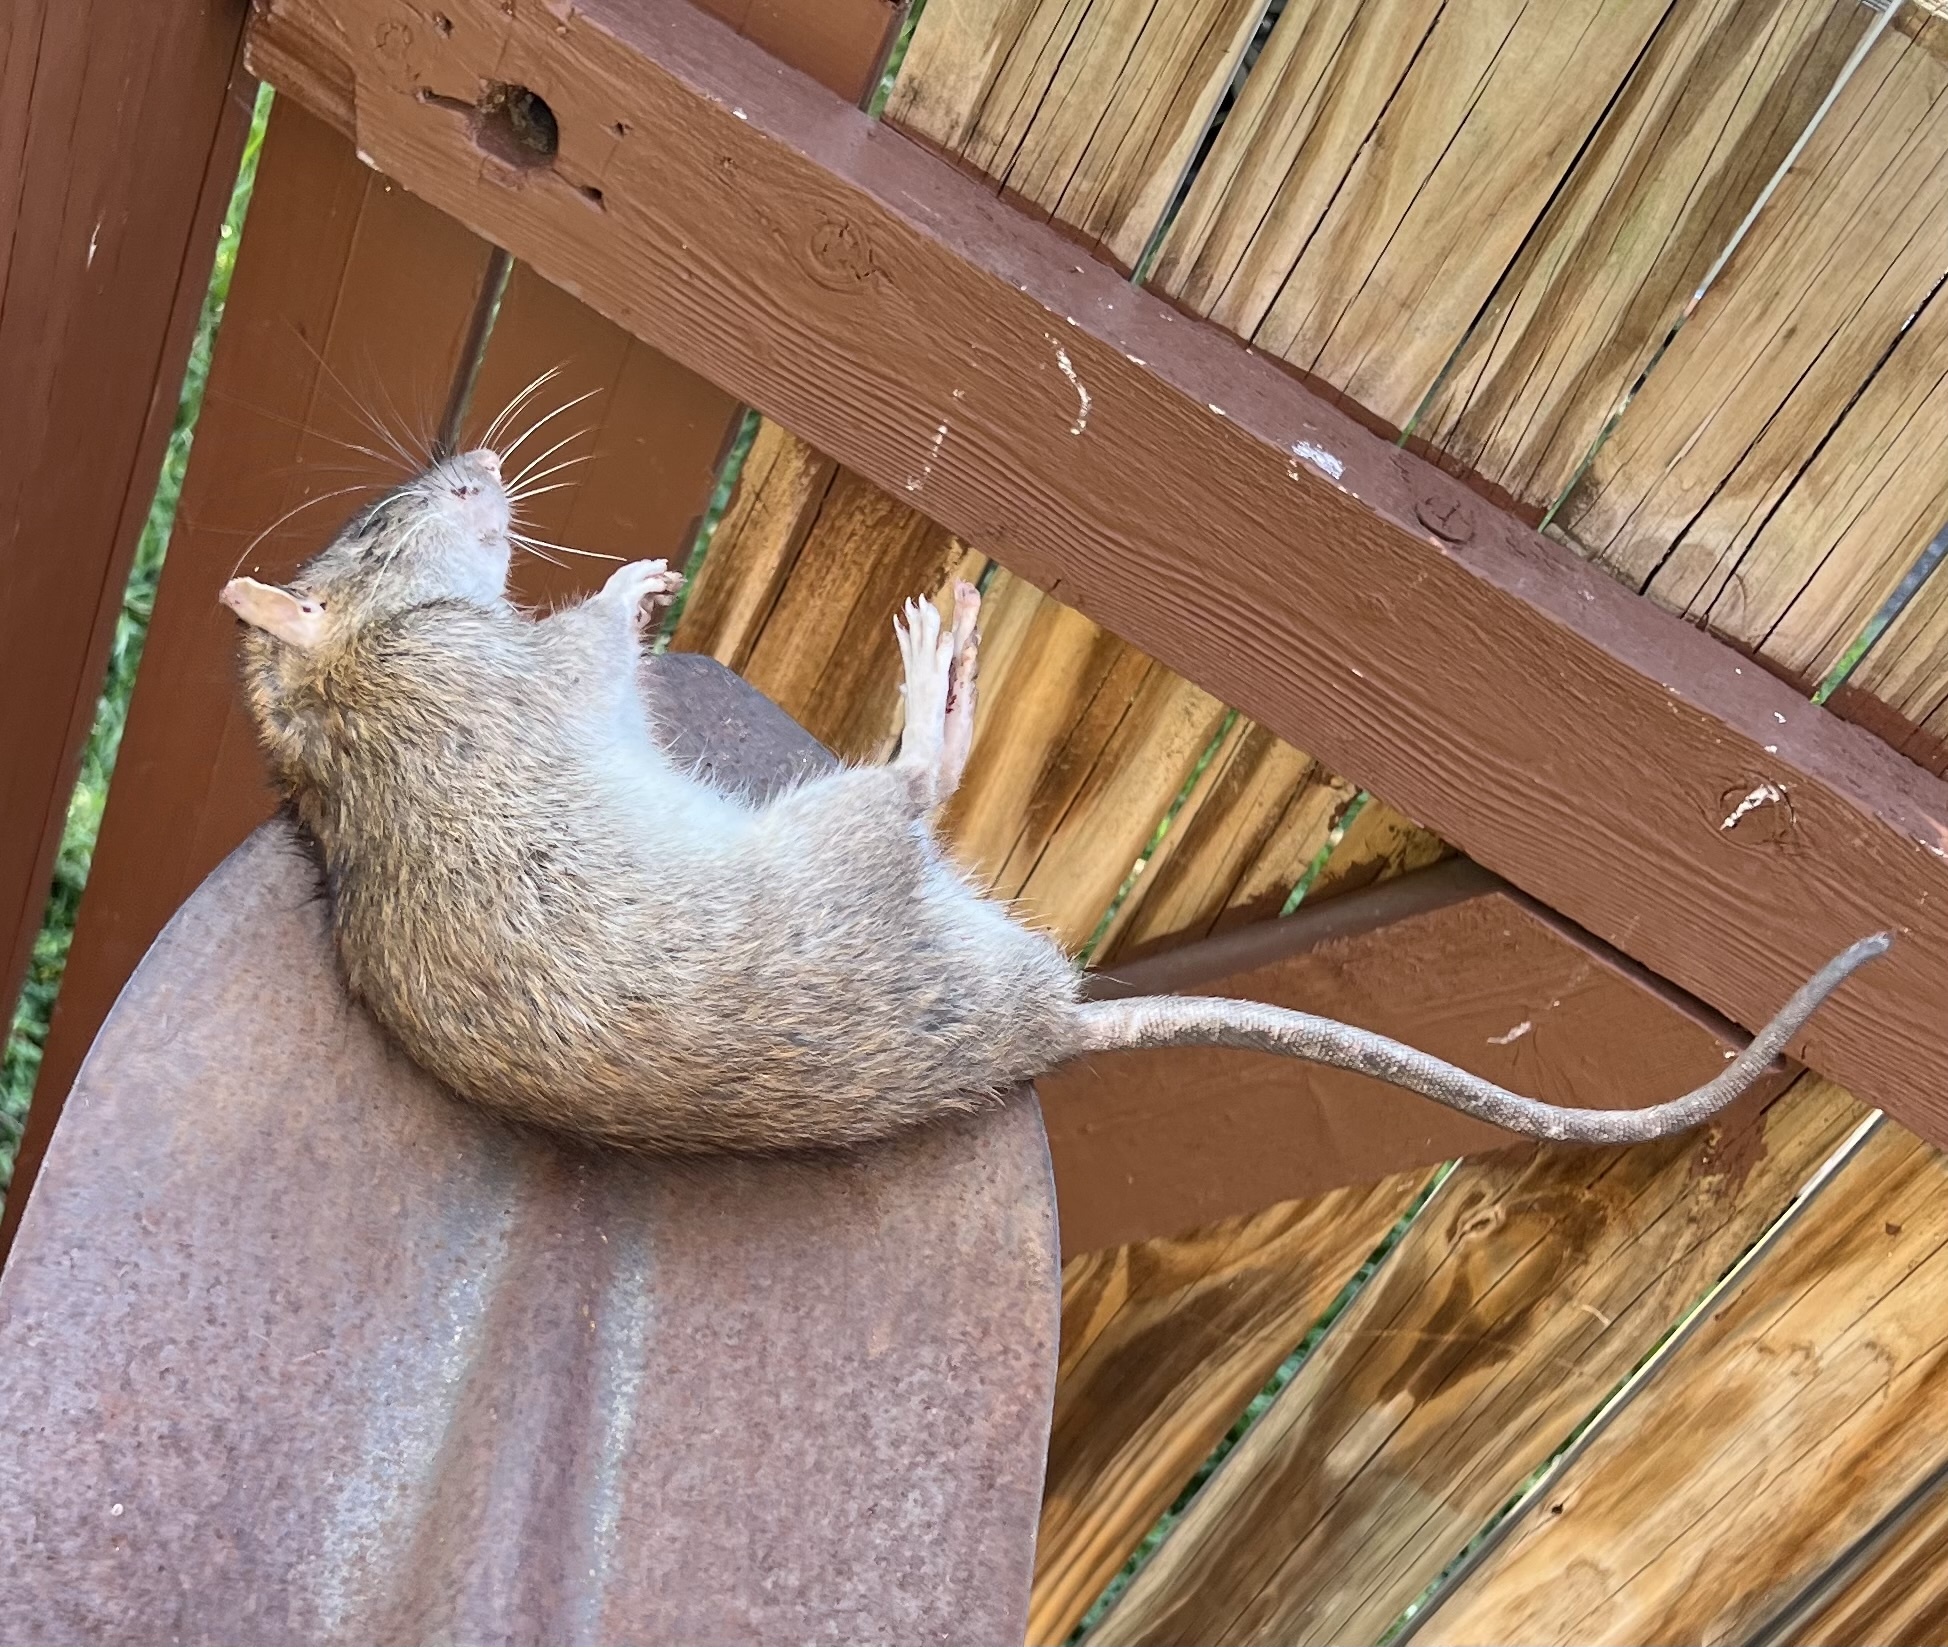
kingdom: Animalia
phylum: Chordata
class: Mammalia
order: Rodentia
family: Muridae
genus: Rattus
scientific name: Rattus norvegicus
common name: Brown rat
